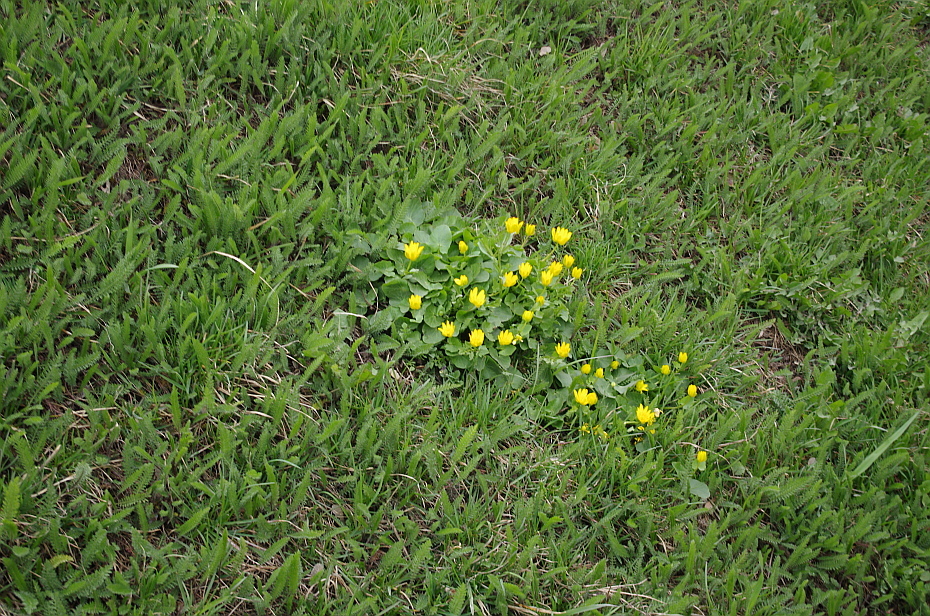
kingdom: Plantae
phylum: Tracheophyta
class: Magnoliopsida
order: Ranunculales
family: Ranunculaceae
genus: Ficaria
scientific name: Ficaria verna
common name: Lesser celandine
